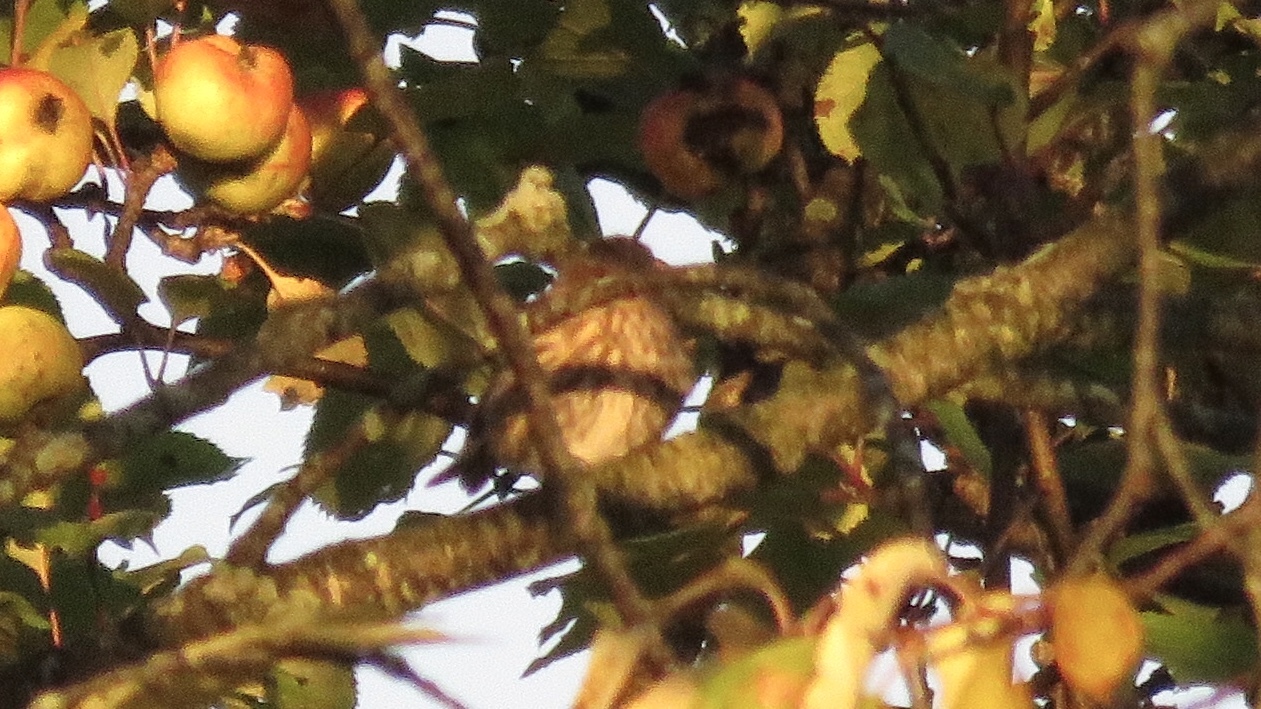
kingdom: Animalia
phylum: Chordata
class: Aves
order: Passeriformes
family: Fringillidae
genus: Spinus
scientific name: Spinus pinus
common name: Pine siskin
